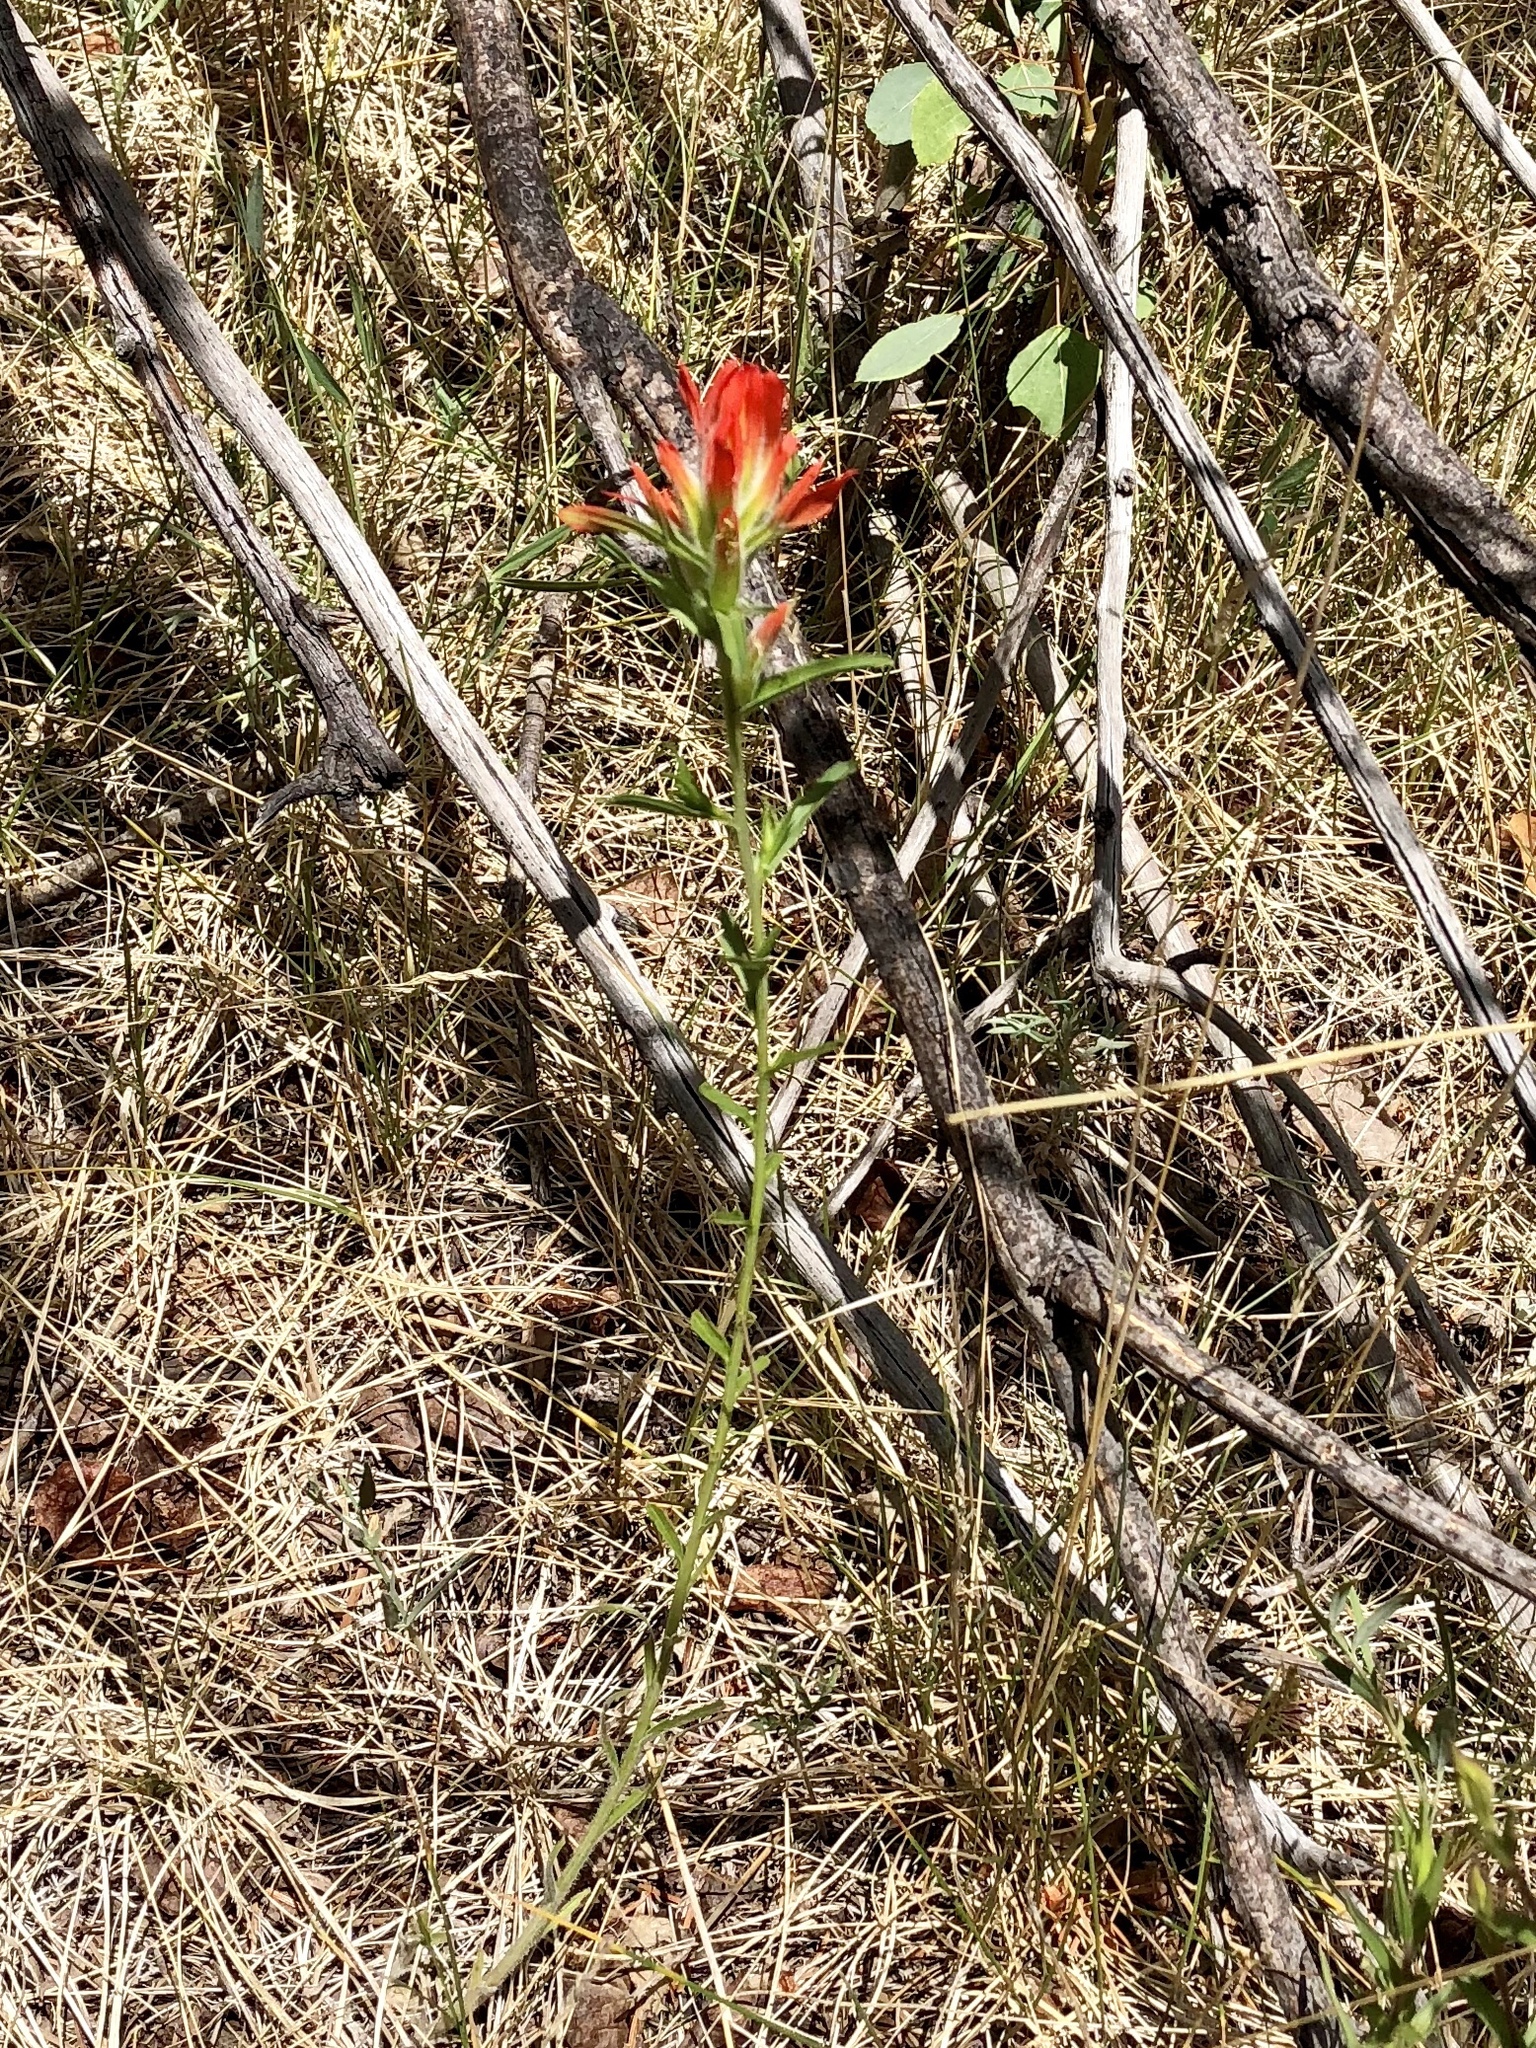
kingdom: Plantae
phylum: Tracheophyta
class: Magnoliopsida
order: Lamiales
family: Orobanchaceae
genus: Castilleja
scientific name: Castilleja wootonii
